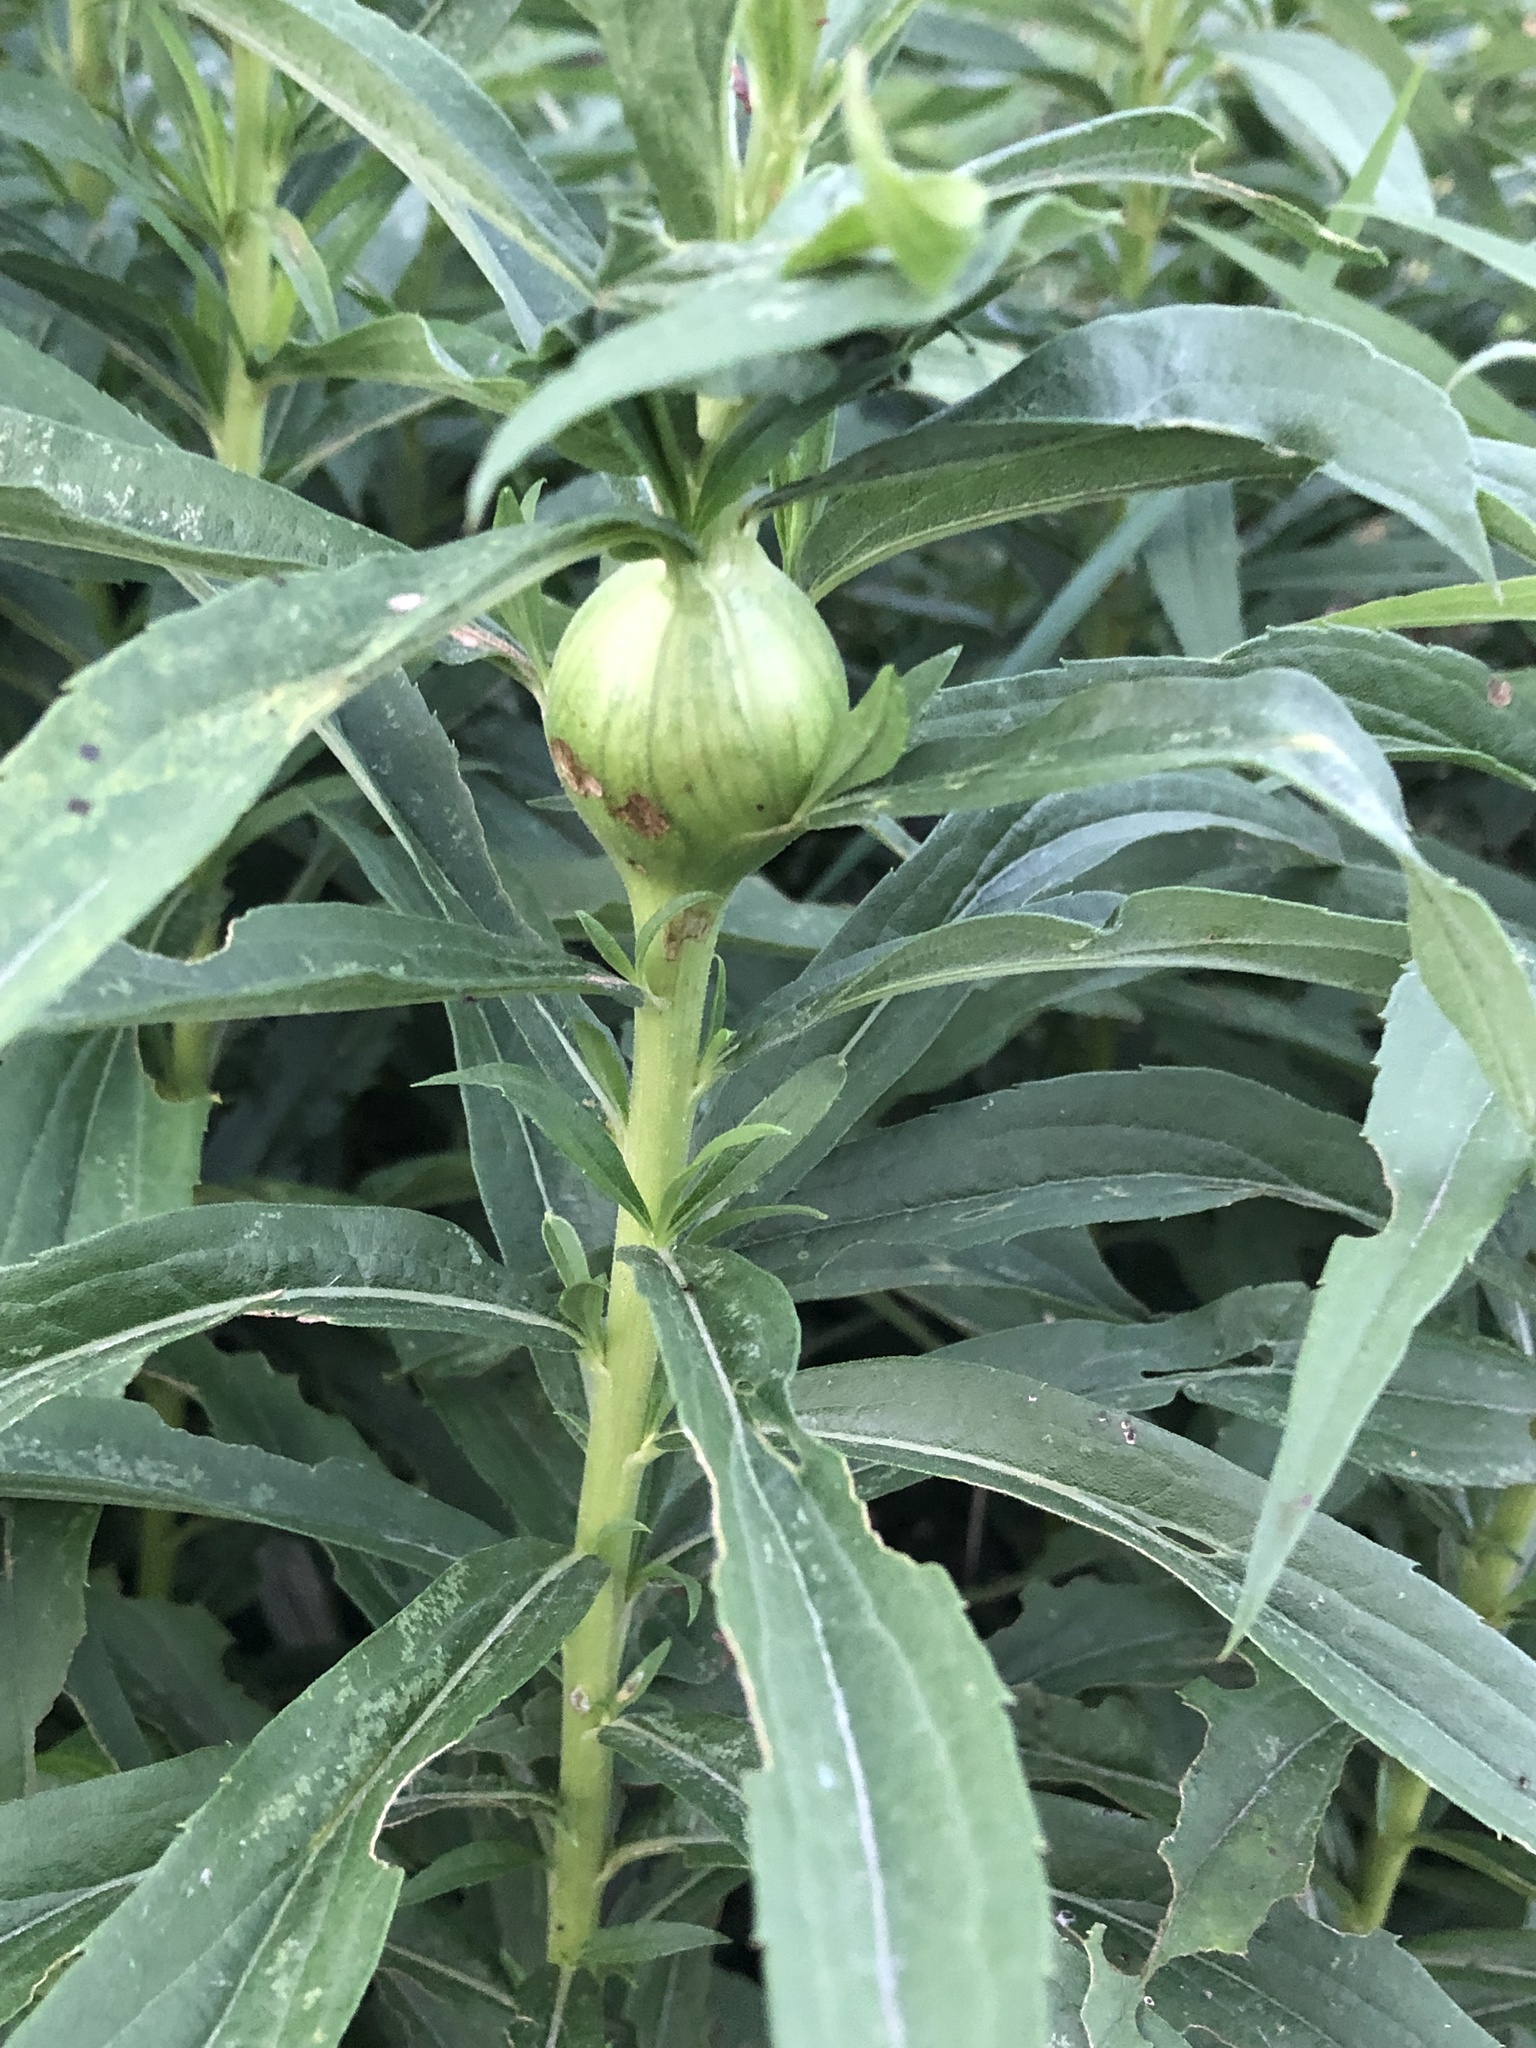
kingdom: Animalia
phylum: Arthropoda
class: Insecta
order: Diptera
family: Tephritidae
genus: Eurosta
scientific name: Eurosta solidaginis
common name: Goldenrod gall fly
